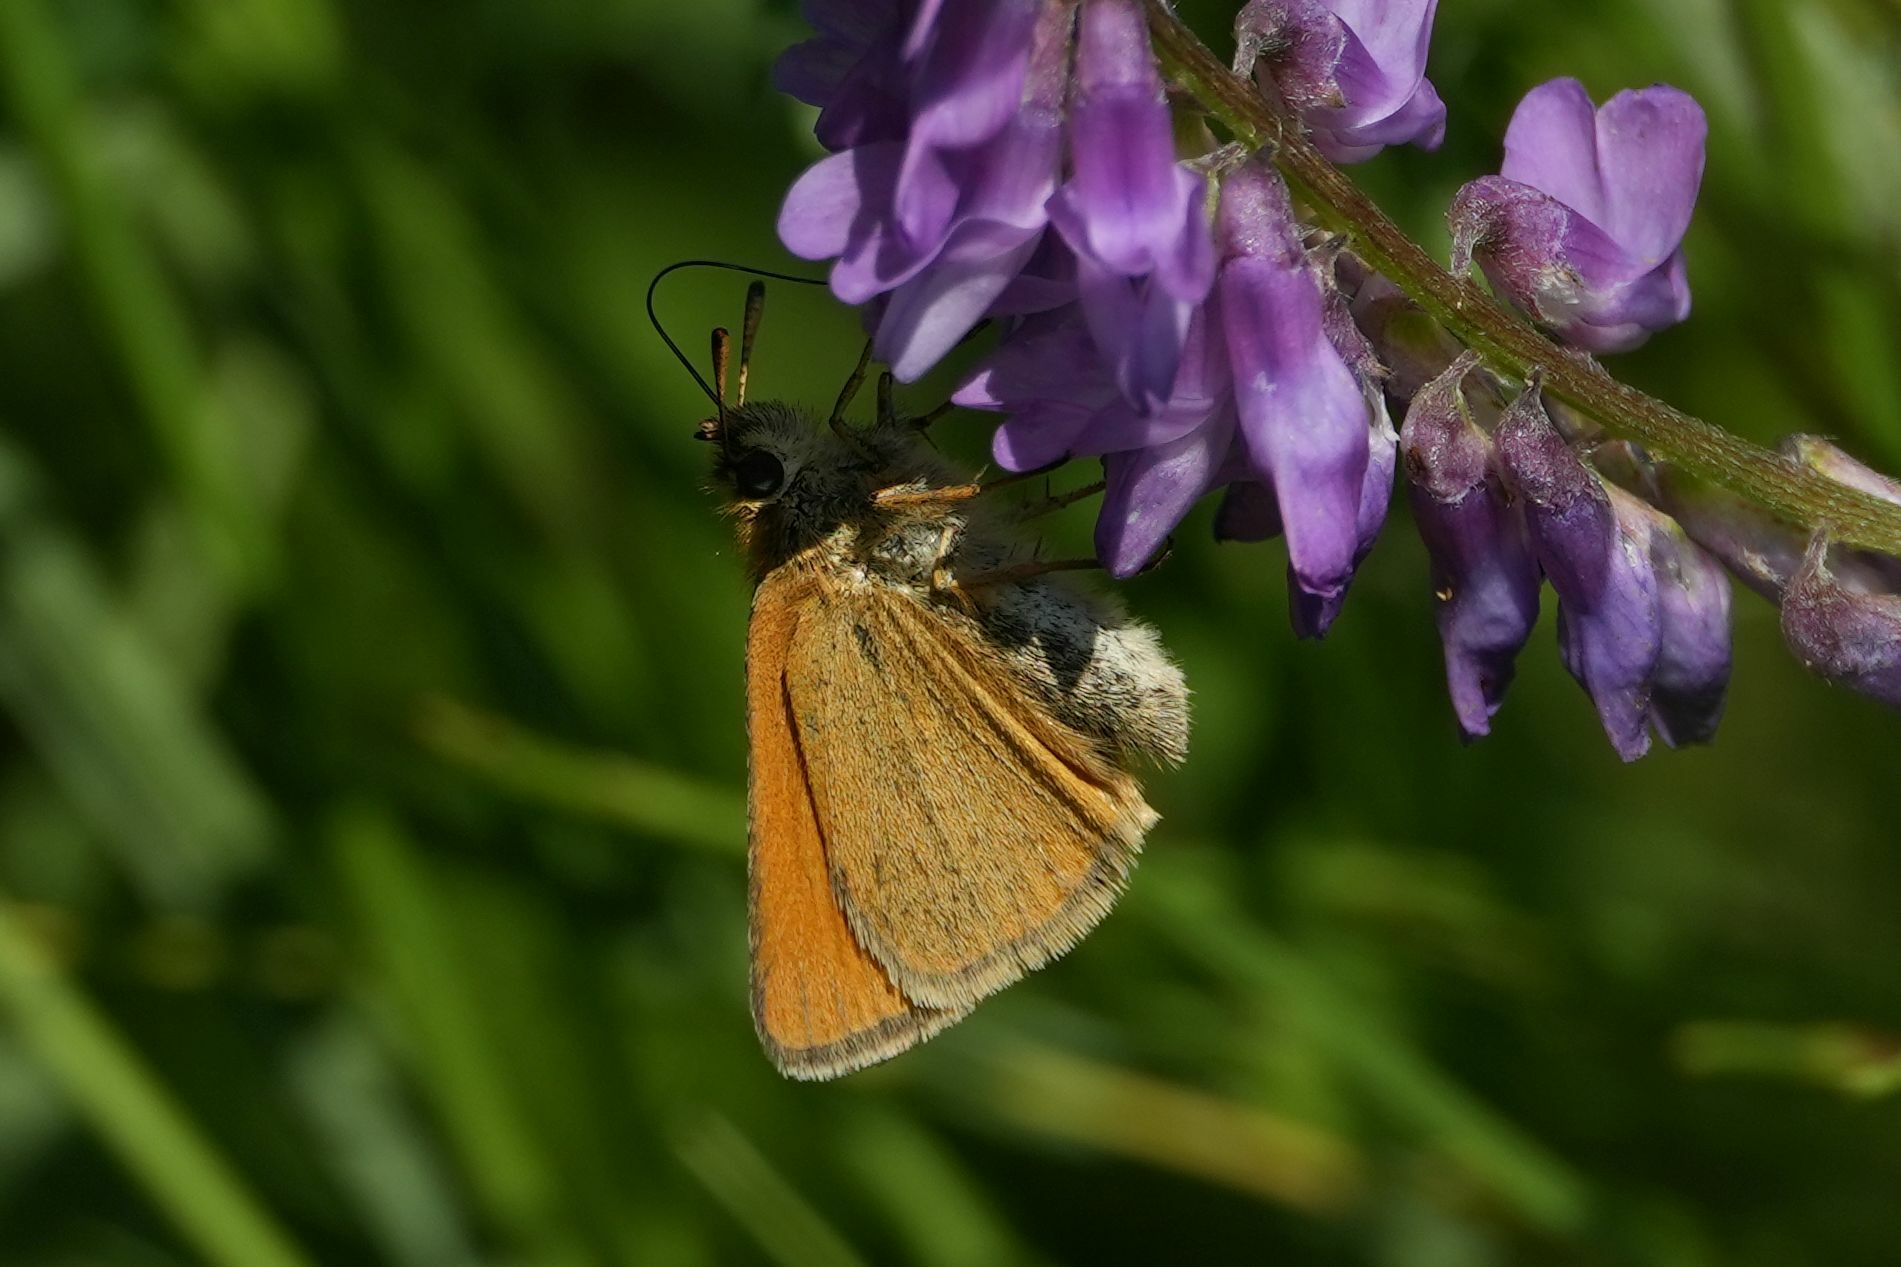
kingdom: Animalia
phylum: Arthropoda
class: Insecta
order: Lepidoptera
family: Hesperiidae
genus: Thymelicus
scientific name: Thymelicus lineola
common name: Essex skipper
